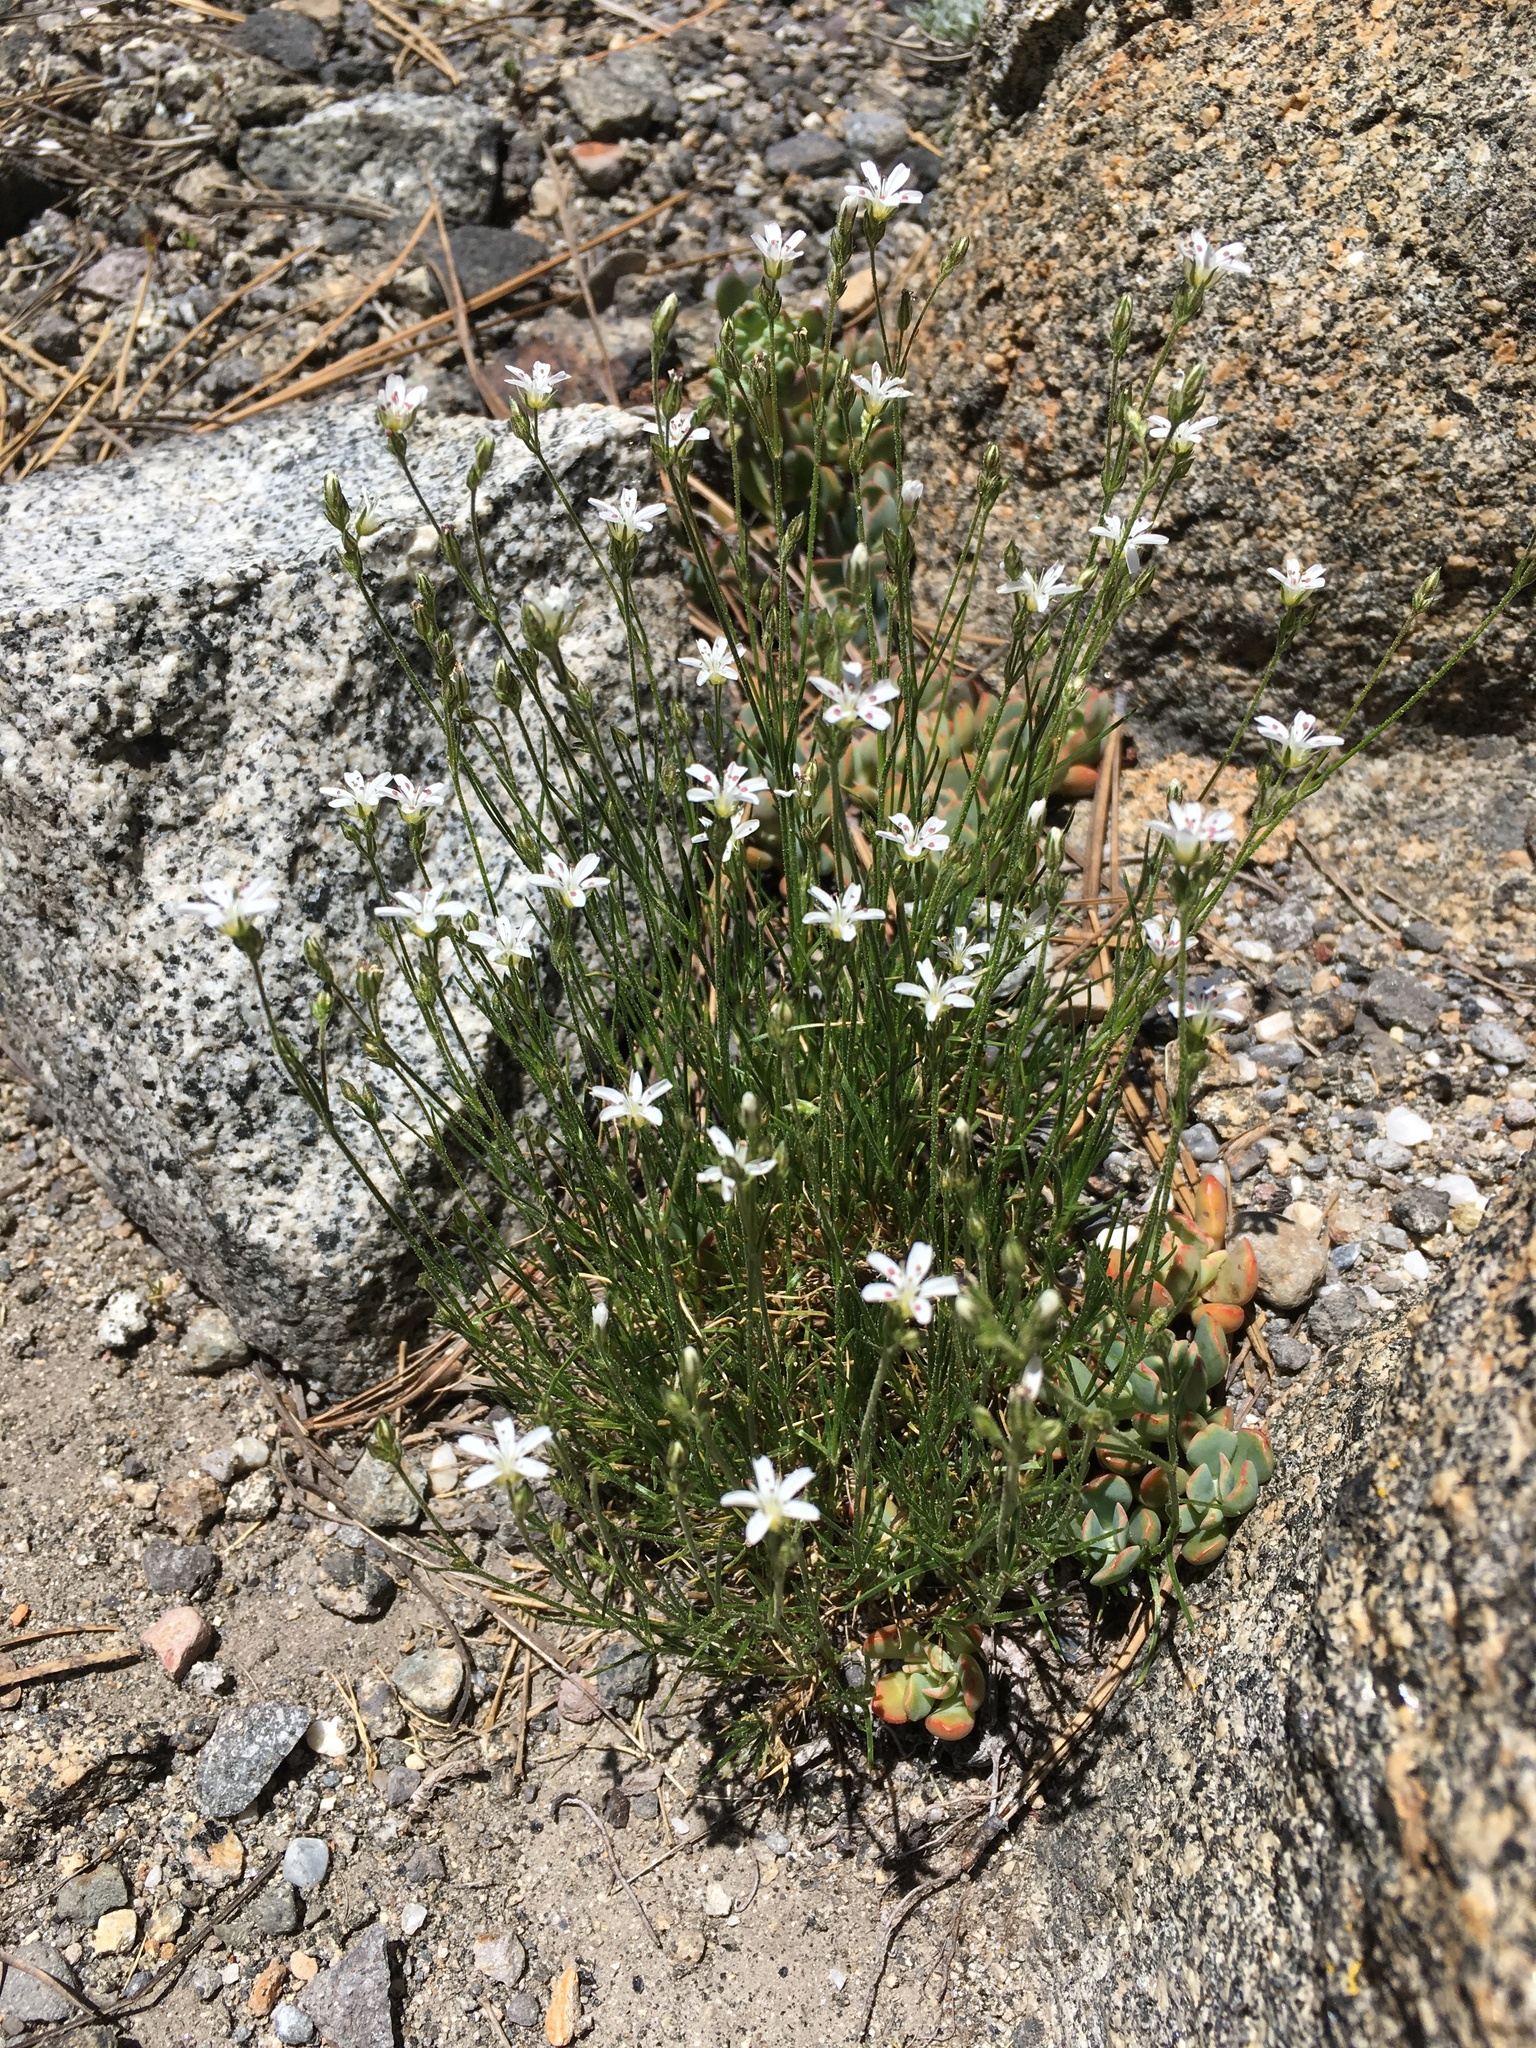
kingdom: Plantae
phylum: Tracheophyta
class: Magnoliopsida
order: Caryophyllales
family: Caryophyllaceae
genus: Eremogone
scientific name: Eremogone kingii
